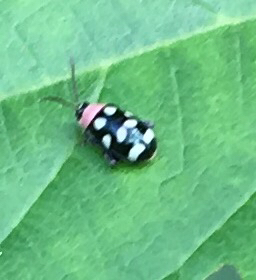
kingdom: Animalia
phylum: Arthropoda
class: Insecta
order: Coleoptera
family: Chrysomelidae
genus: Omophoita
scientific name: Omophoita aequinoctialis
